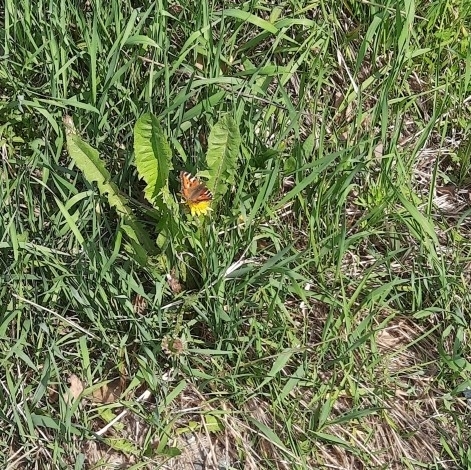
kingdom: Animalia
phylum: Arthropoda
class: Insecta
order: Lepidoptera
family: Nymphalidae
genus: Aglais
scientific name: Aglais urticae
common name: Small tortoiseshell
